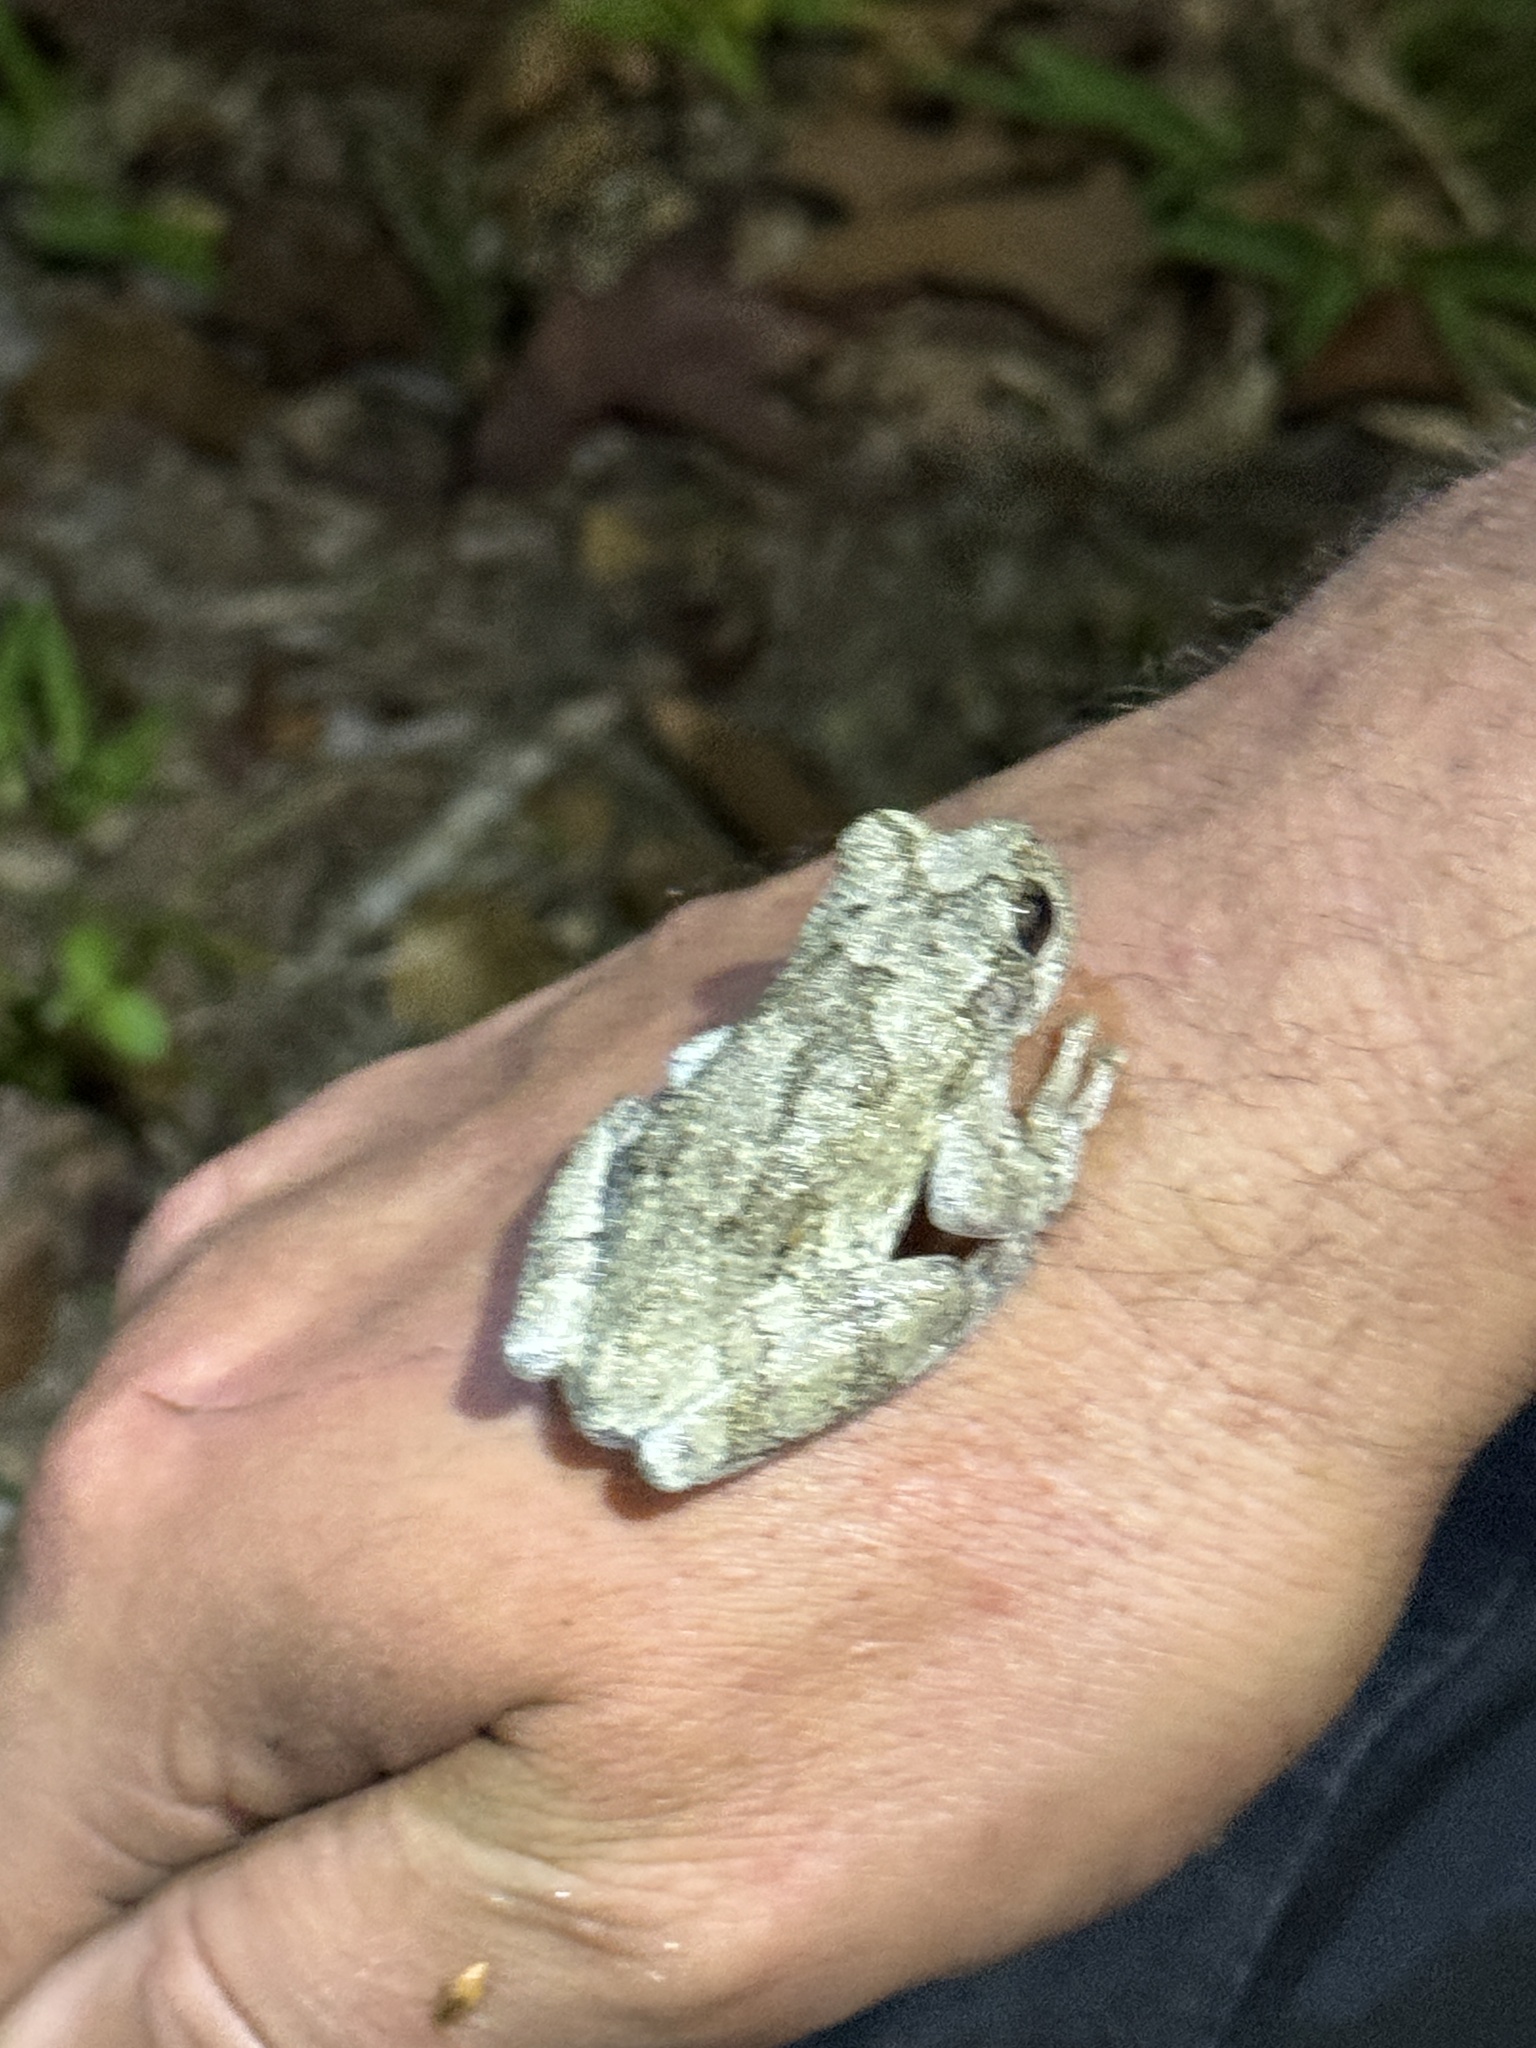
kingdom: Animalia
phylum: Chordata
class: Amphibia
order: Anura
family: Hylidae
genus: Dryophytes
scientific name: Dryophytes chrysoscelis
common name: Cope's gray treefrog
